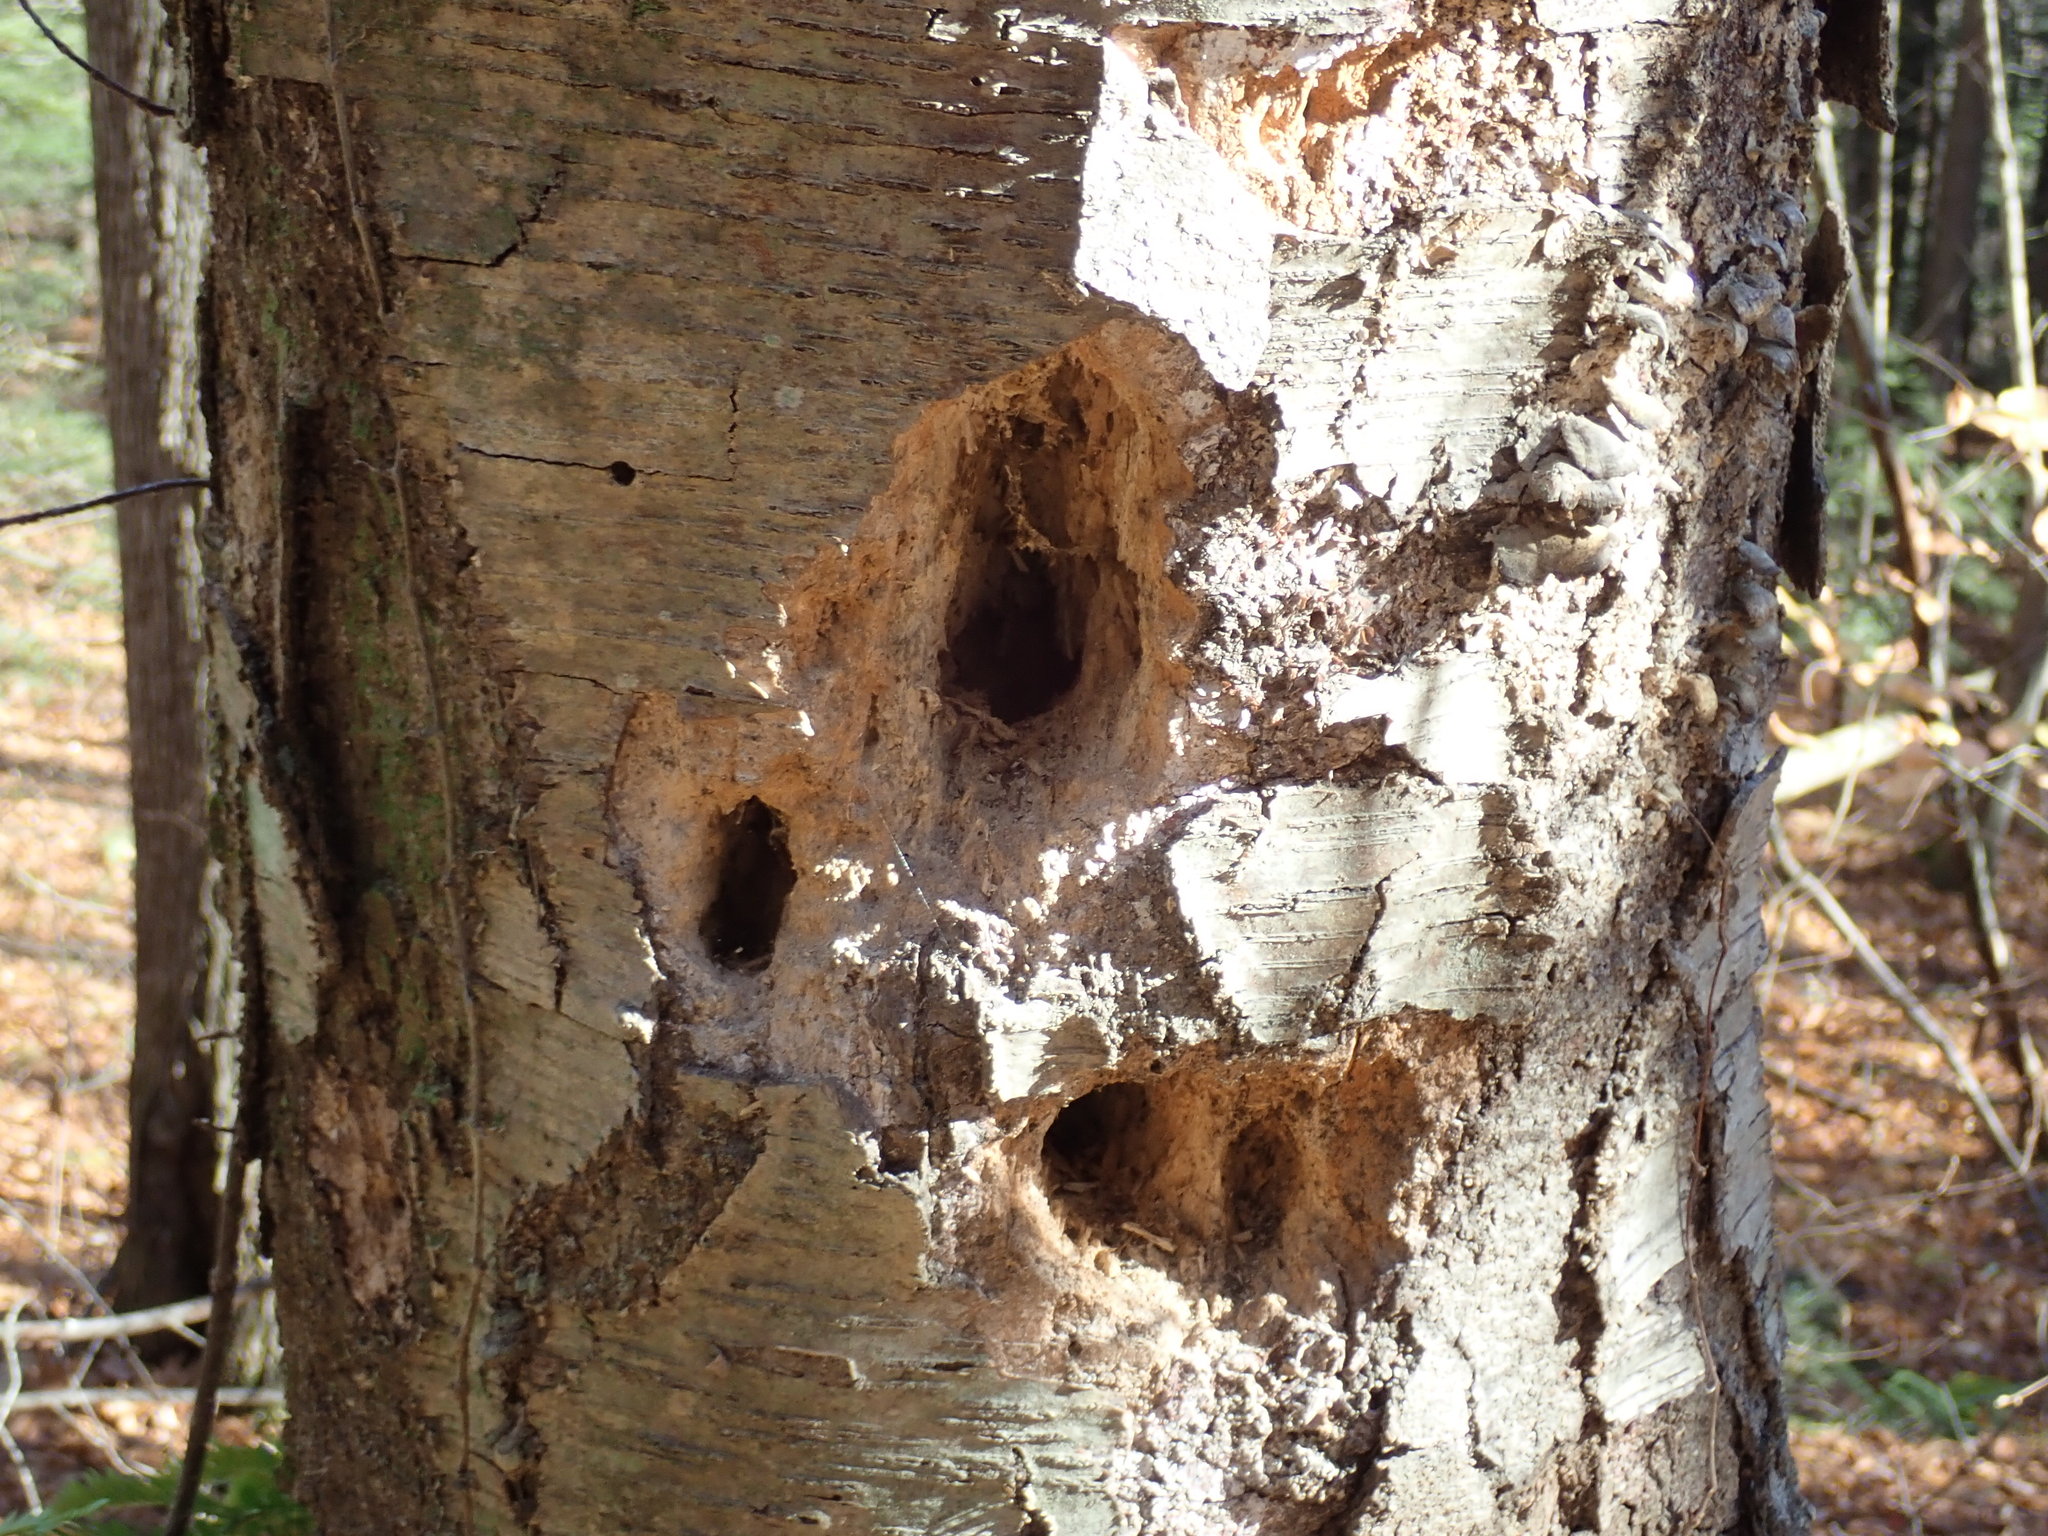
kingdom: Animalia
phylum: Chordata
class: Aves
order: Piciformes
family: Picidae
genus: Dryocopus
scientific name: Dryocopus pileatus
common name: Pileated woodpecker
